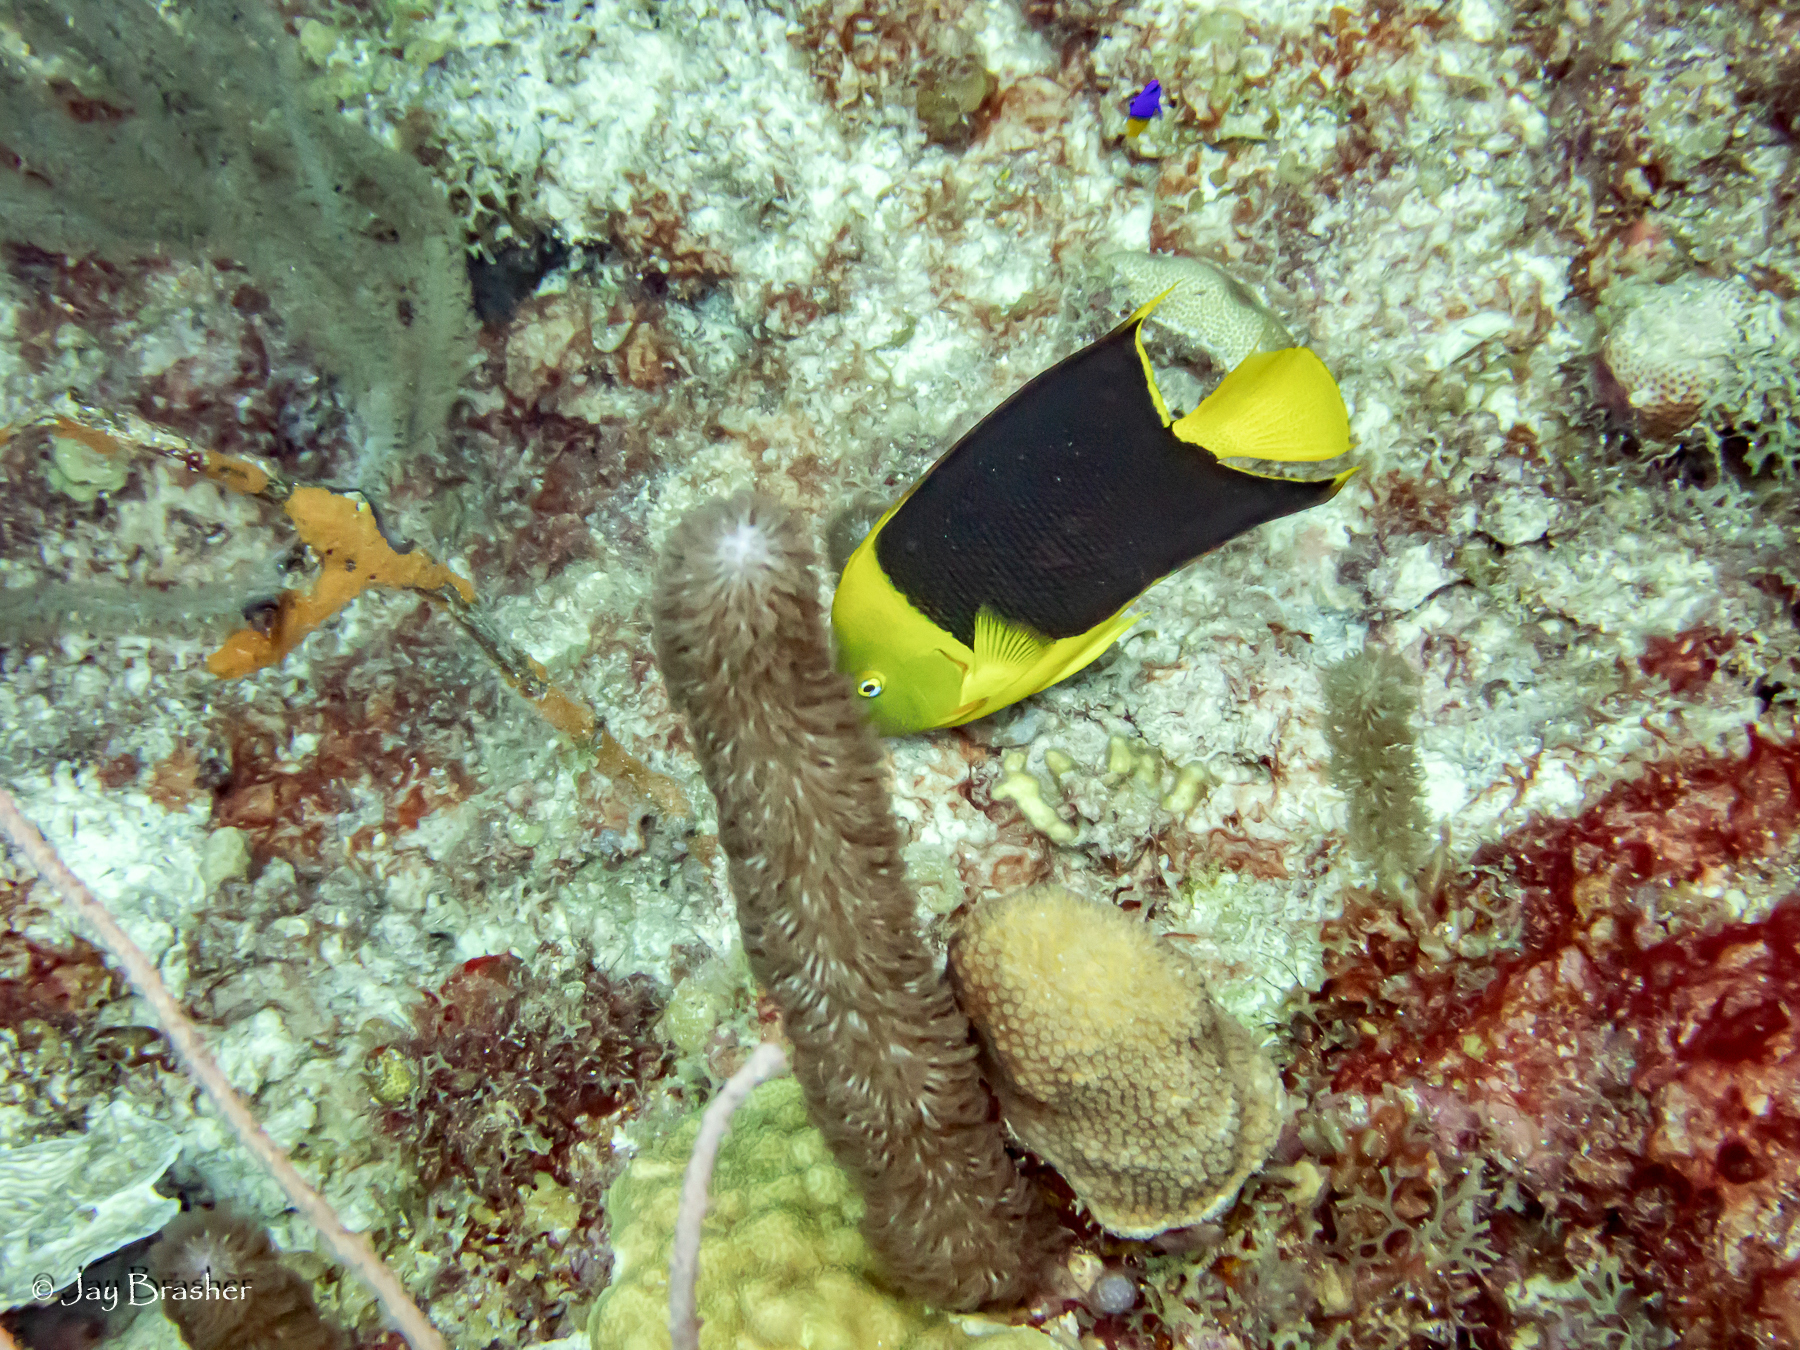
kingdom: Animalia
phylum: Chordata
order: Perciformes
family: Pomacanthidae
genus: Holacanthus
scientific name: Holacanthus tricolor
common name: Rock beauty
